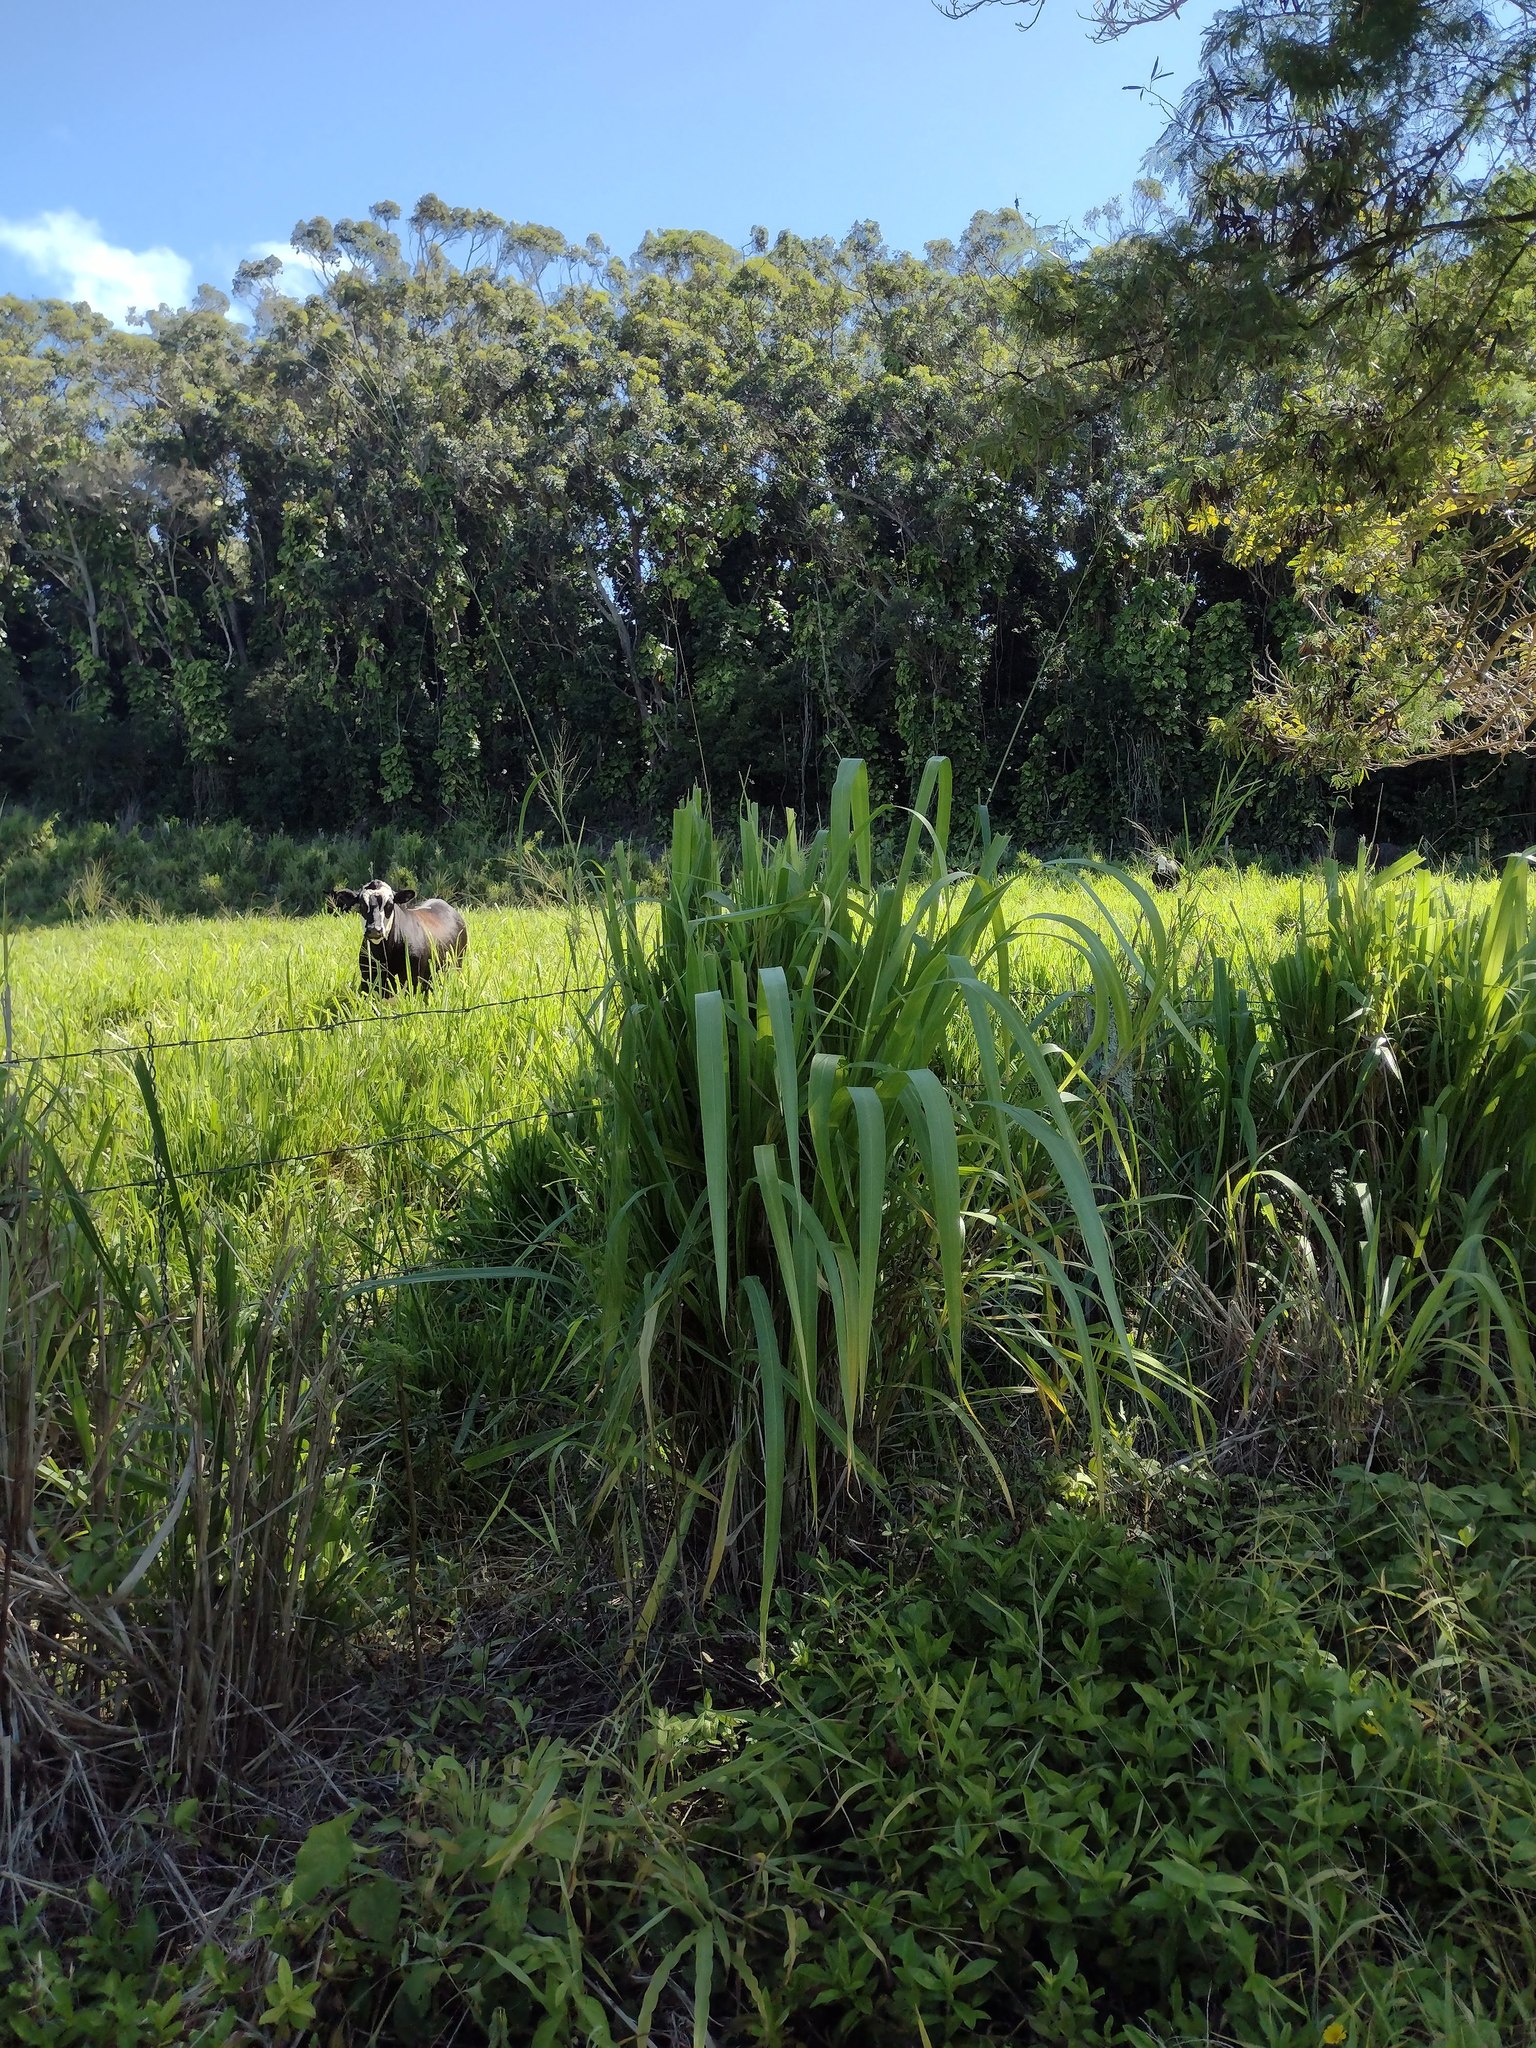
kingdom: Plantae
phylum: Tracheophyta
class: Liliopsida
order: Poales
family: Poaceae
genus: Megathyrsus
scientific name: Megathyrsus maximus
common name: Guineagrass
